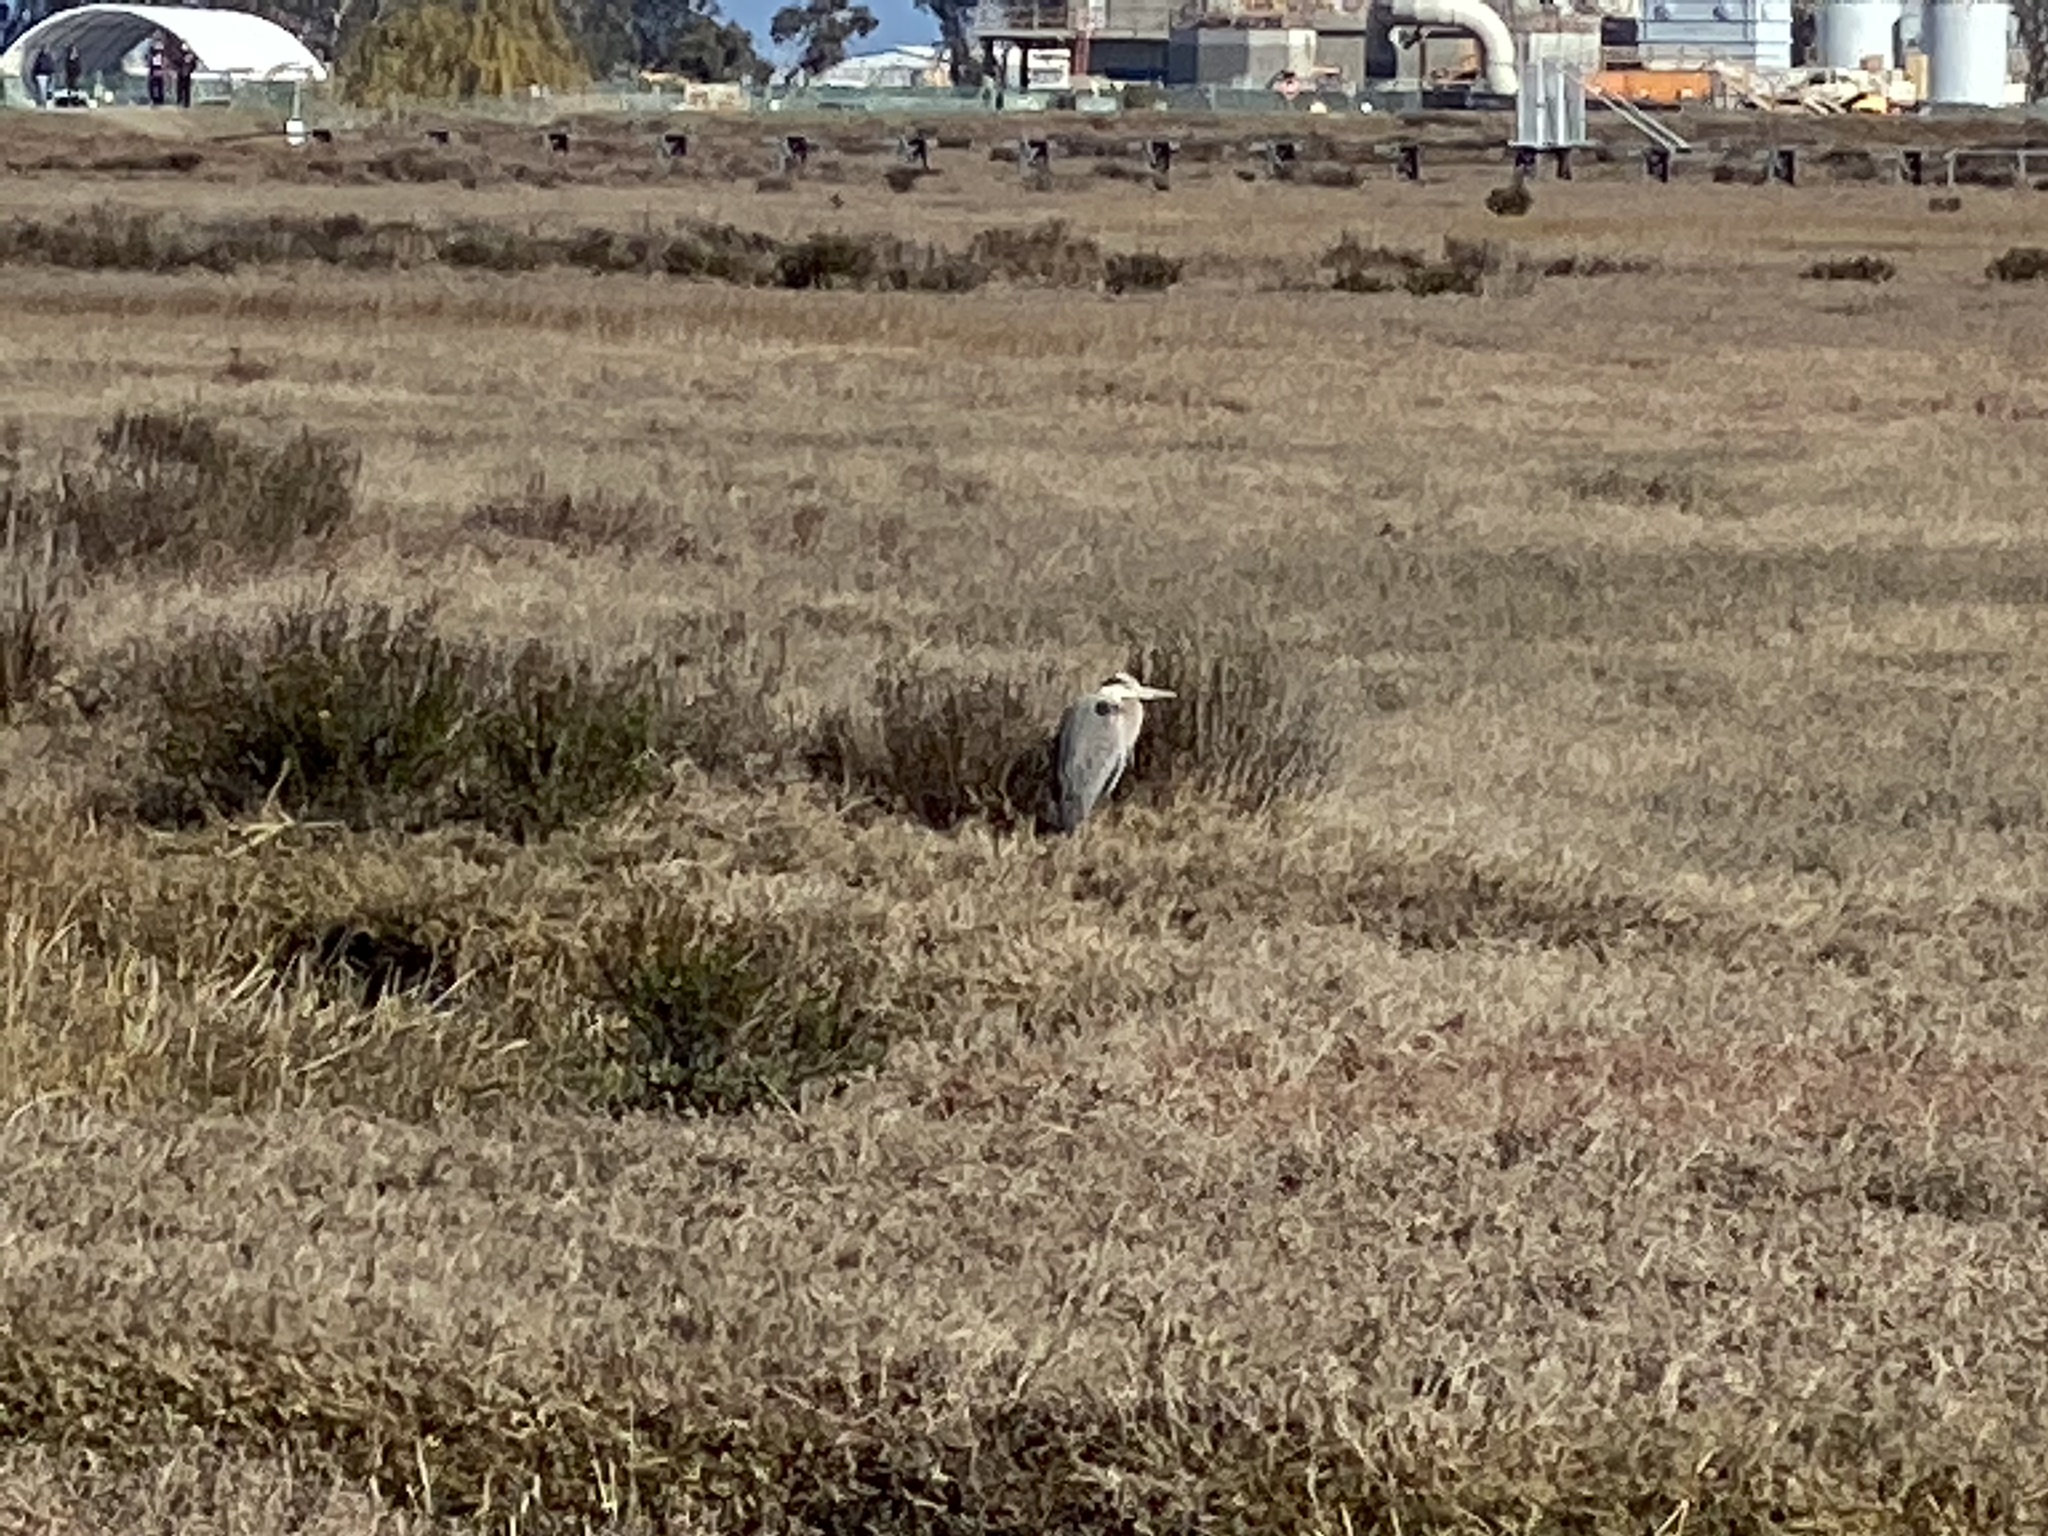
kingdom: Animalia
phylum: Chordata
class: Aves
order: Pelecaniformes
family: Ardeidae
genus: Ardea
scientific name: Ardea herodias
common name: Great blue heron
